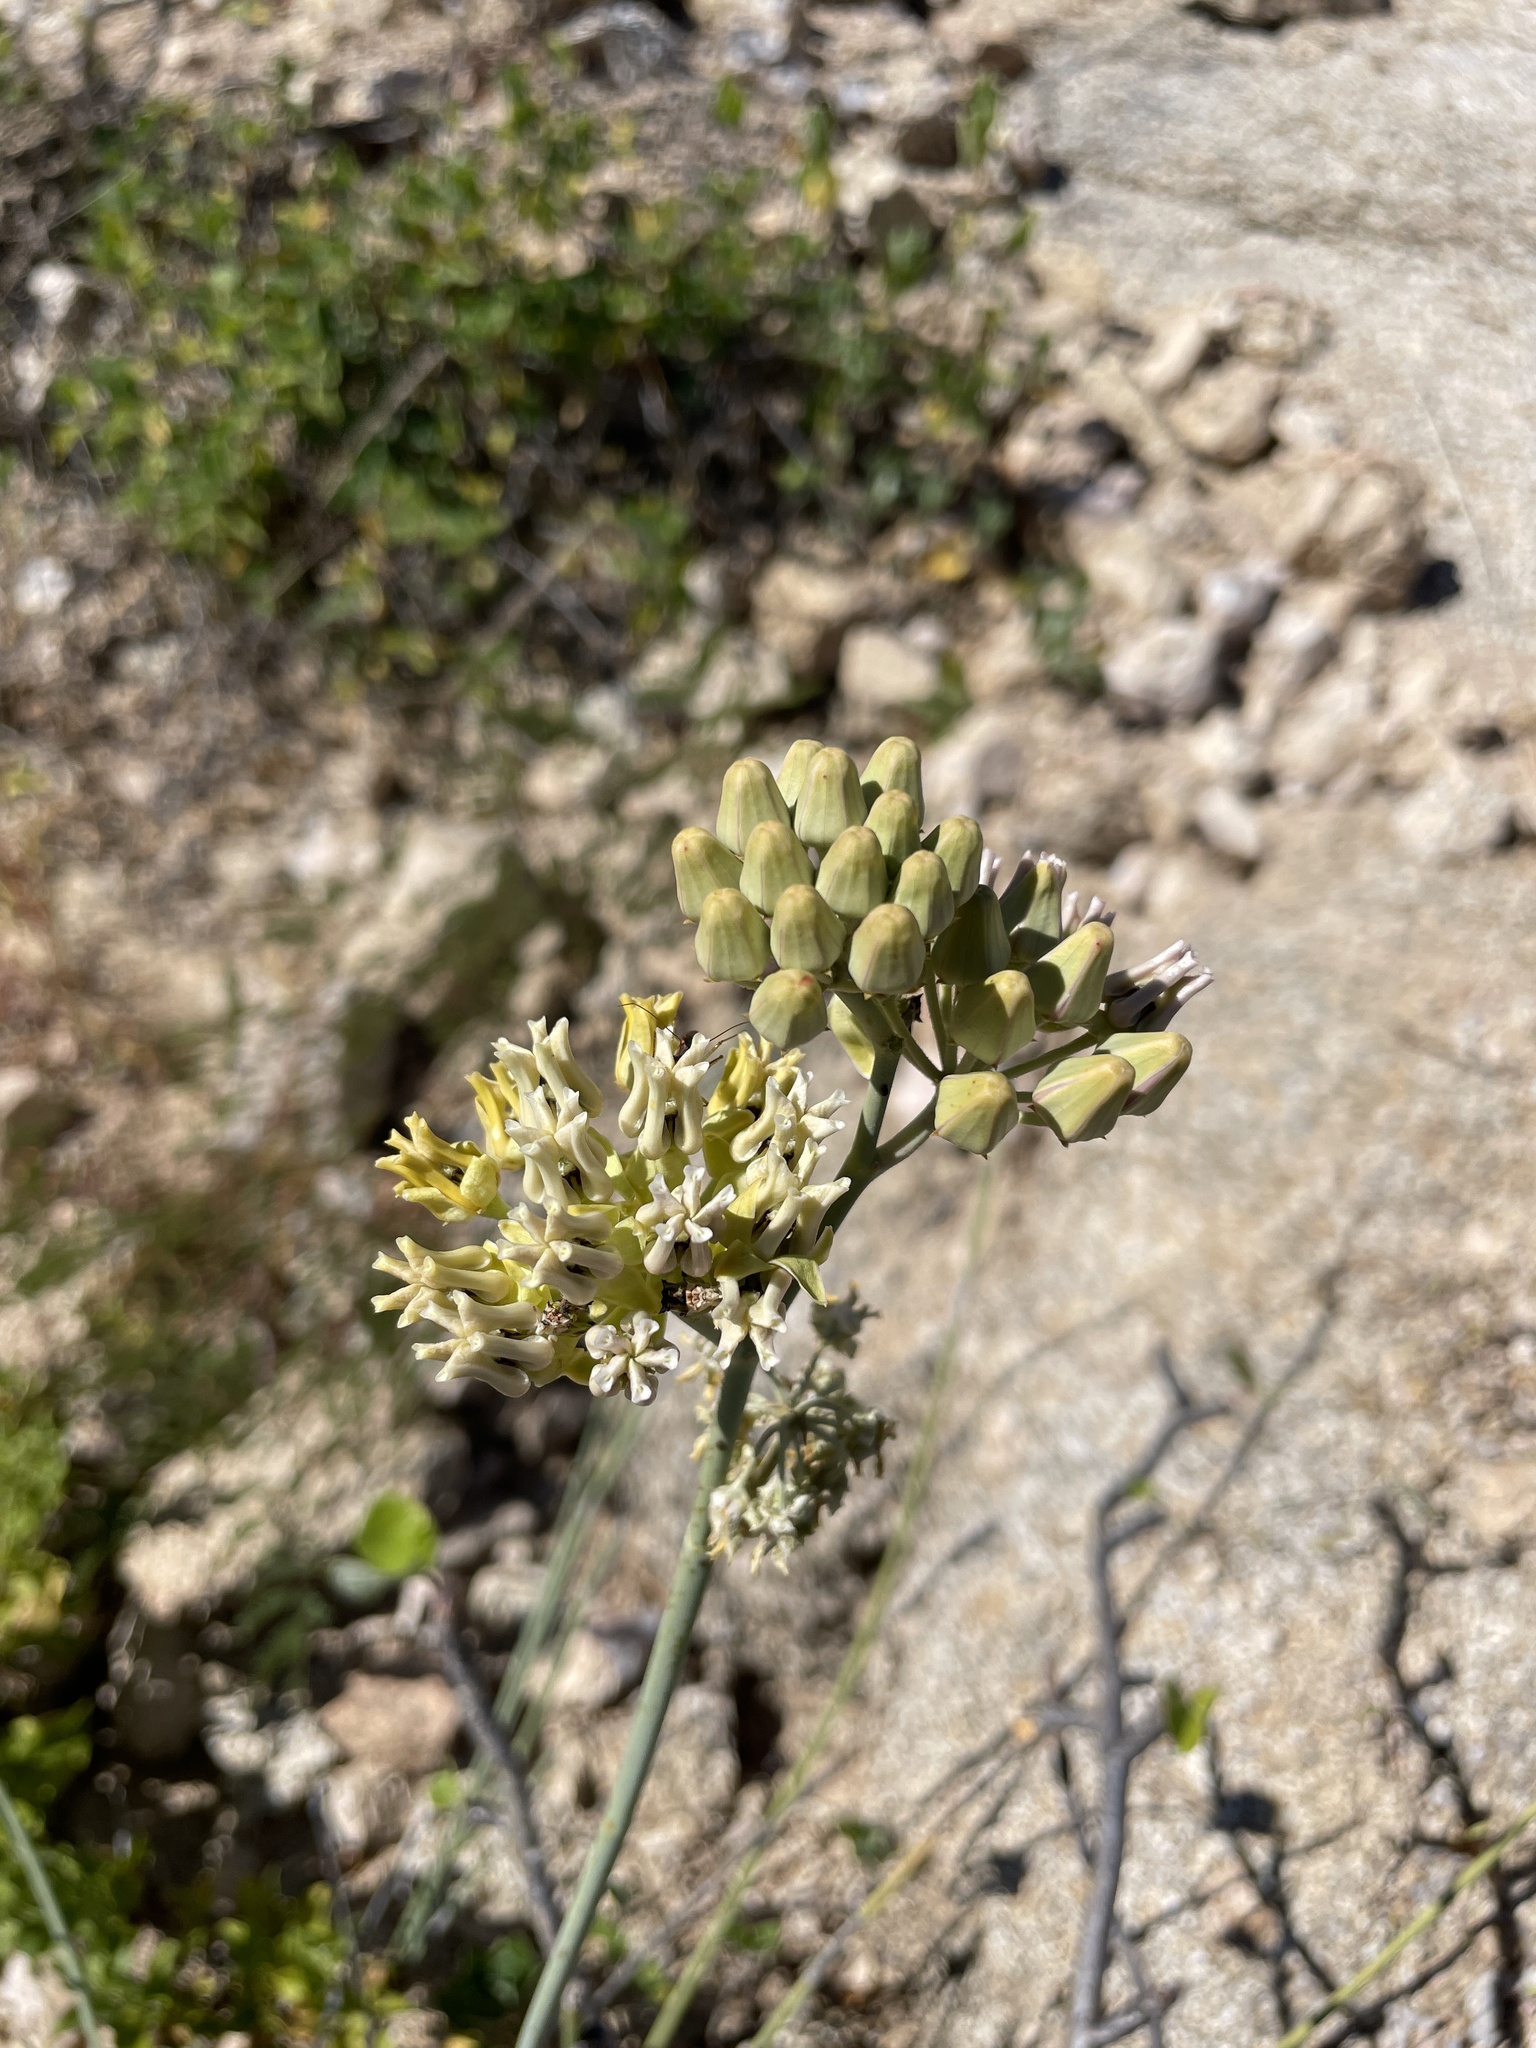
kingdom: Plantae
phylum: Tracheophyta
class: Magnoliopsida
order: Gentianales
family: Apocynaceae
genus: Asclepias
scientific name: Asclepias subulata
